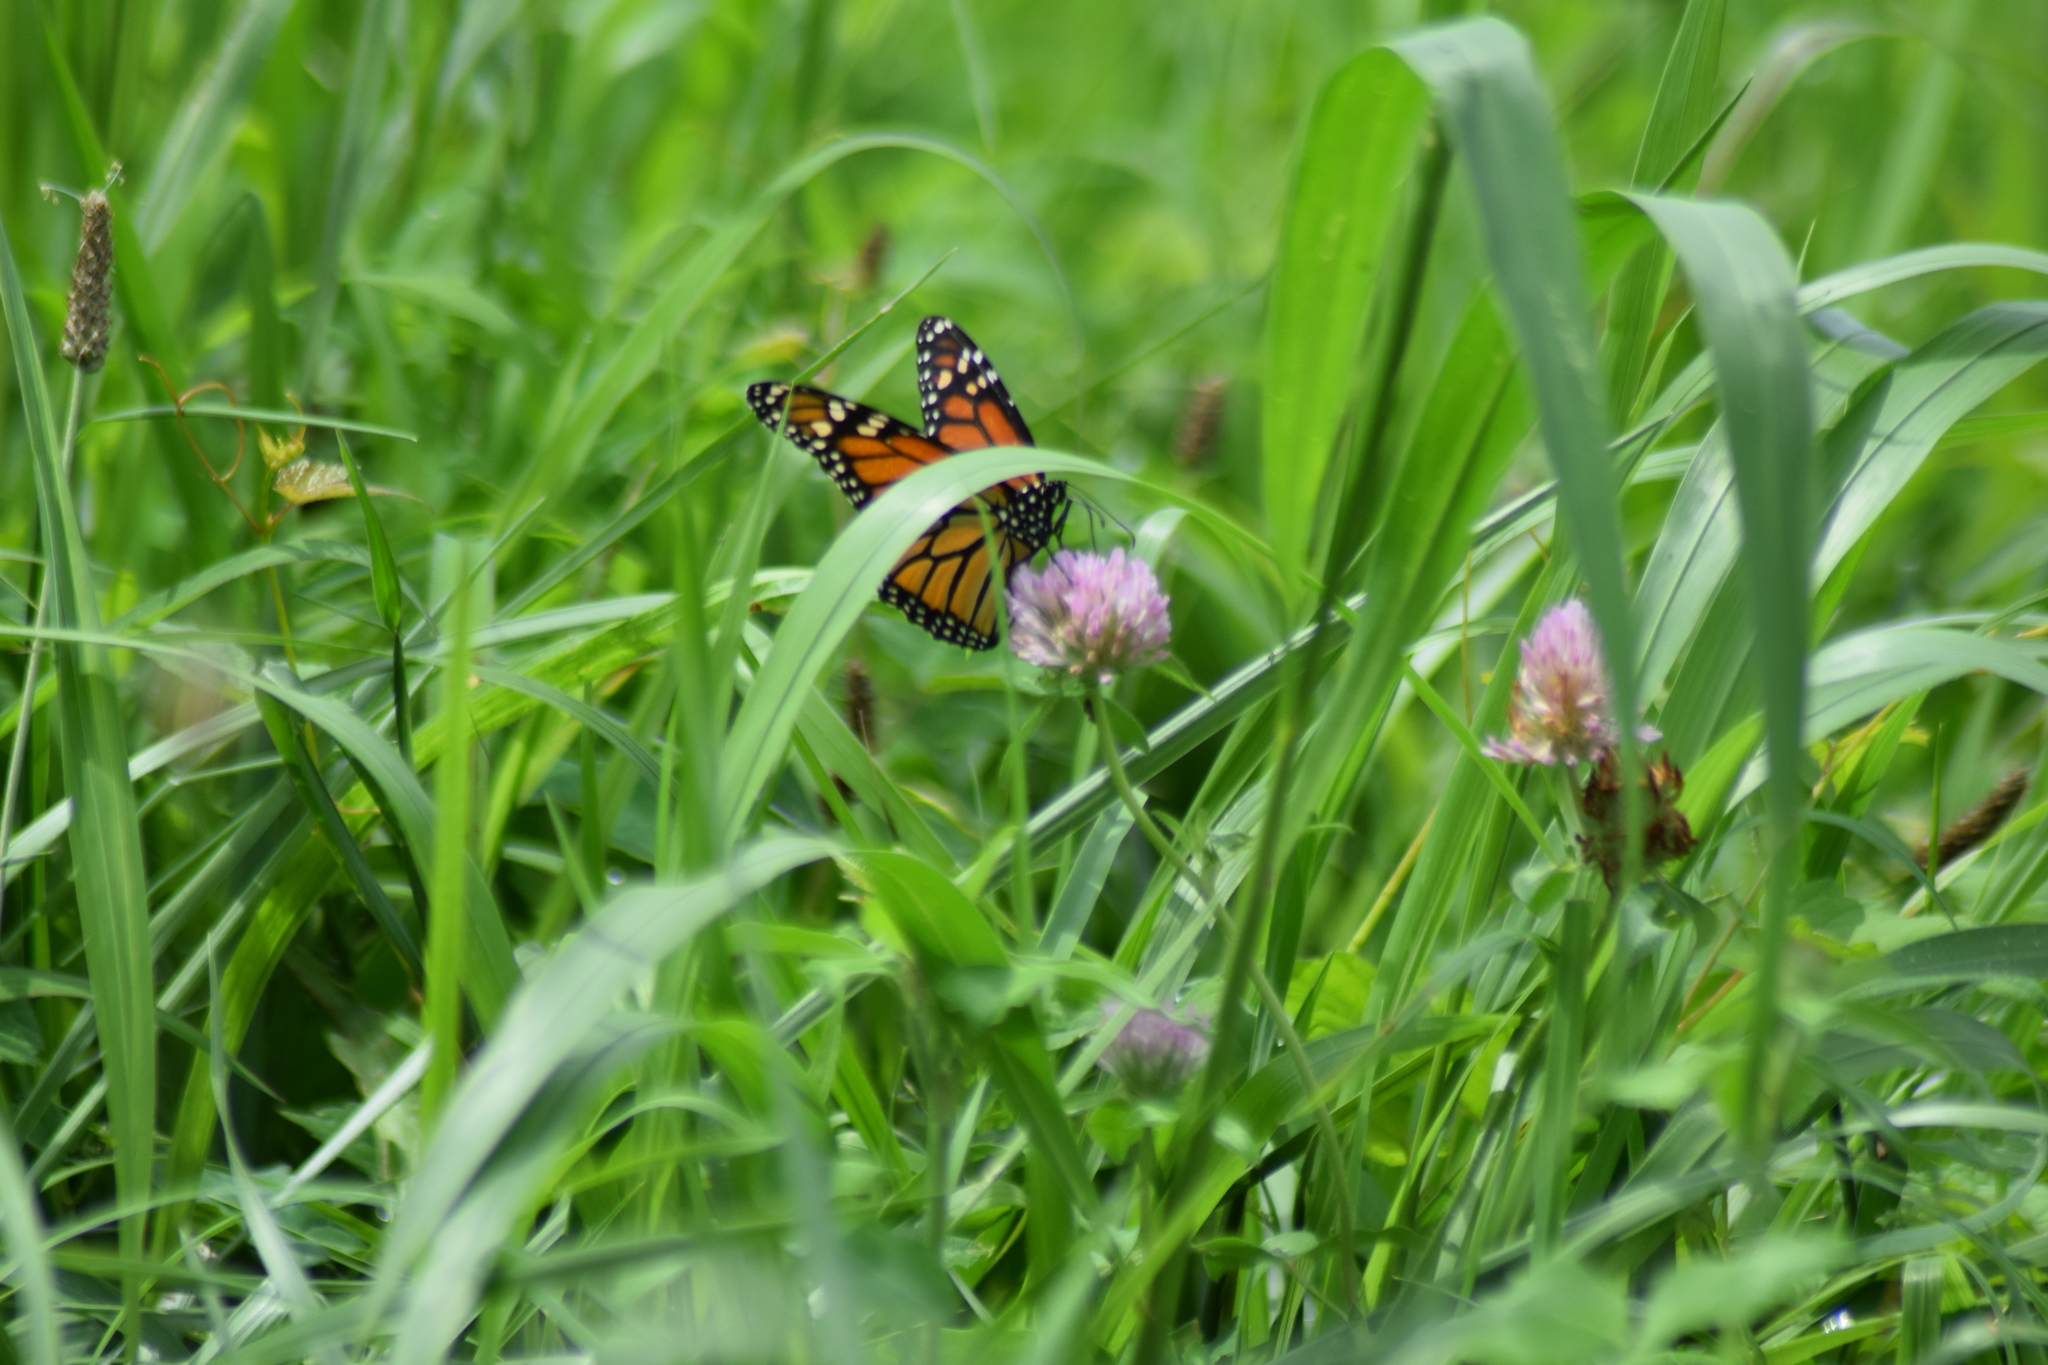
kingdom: Animalia
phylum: Arthropoda
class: Insecta
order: Lepidoptera
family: Nymphalidae
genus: Danaus
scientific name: Danaus plexippus
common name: Monarch
